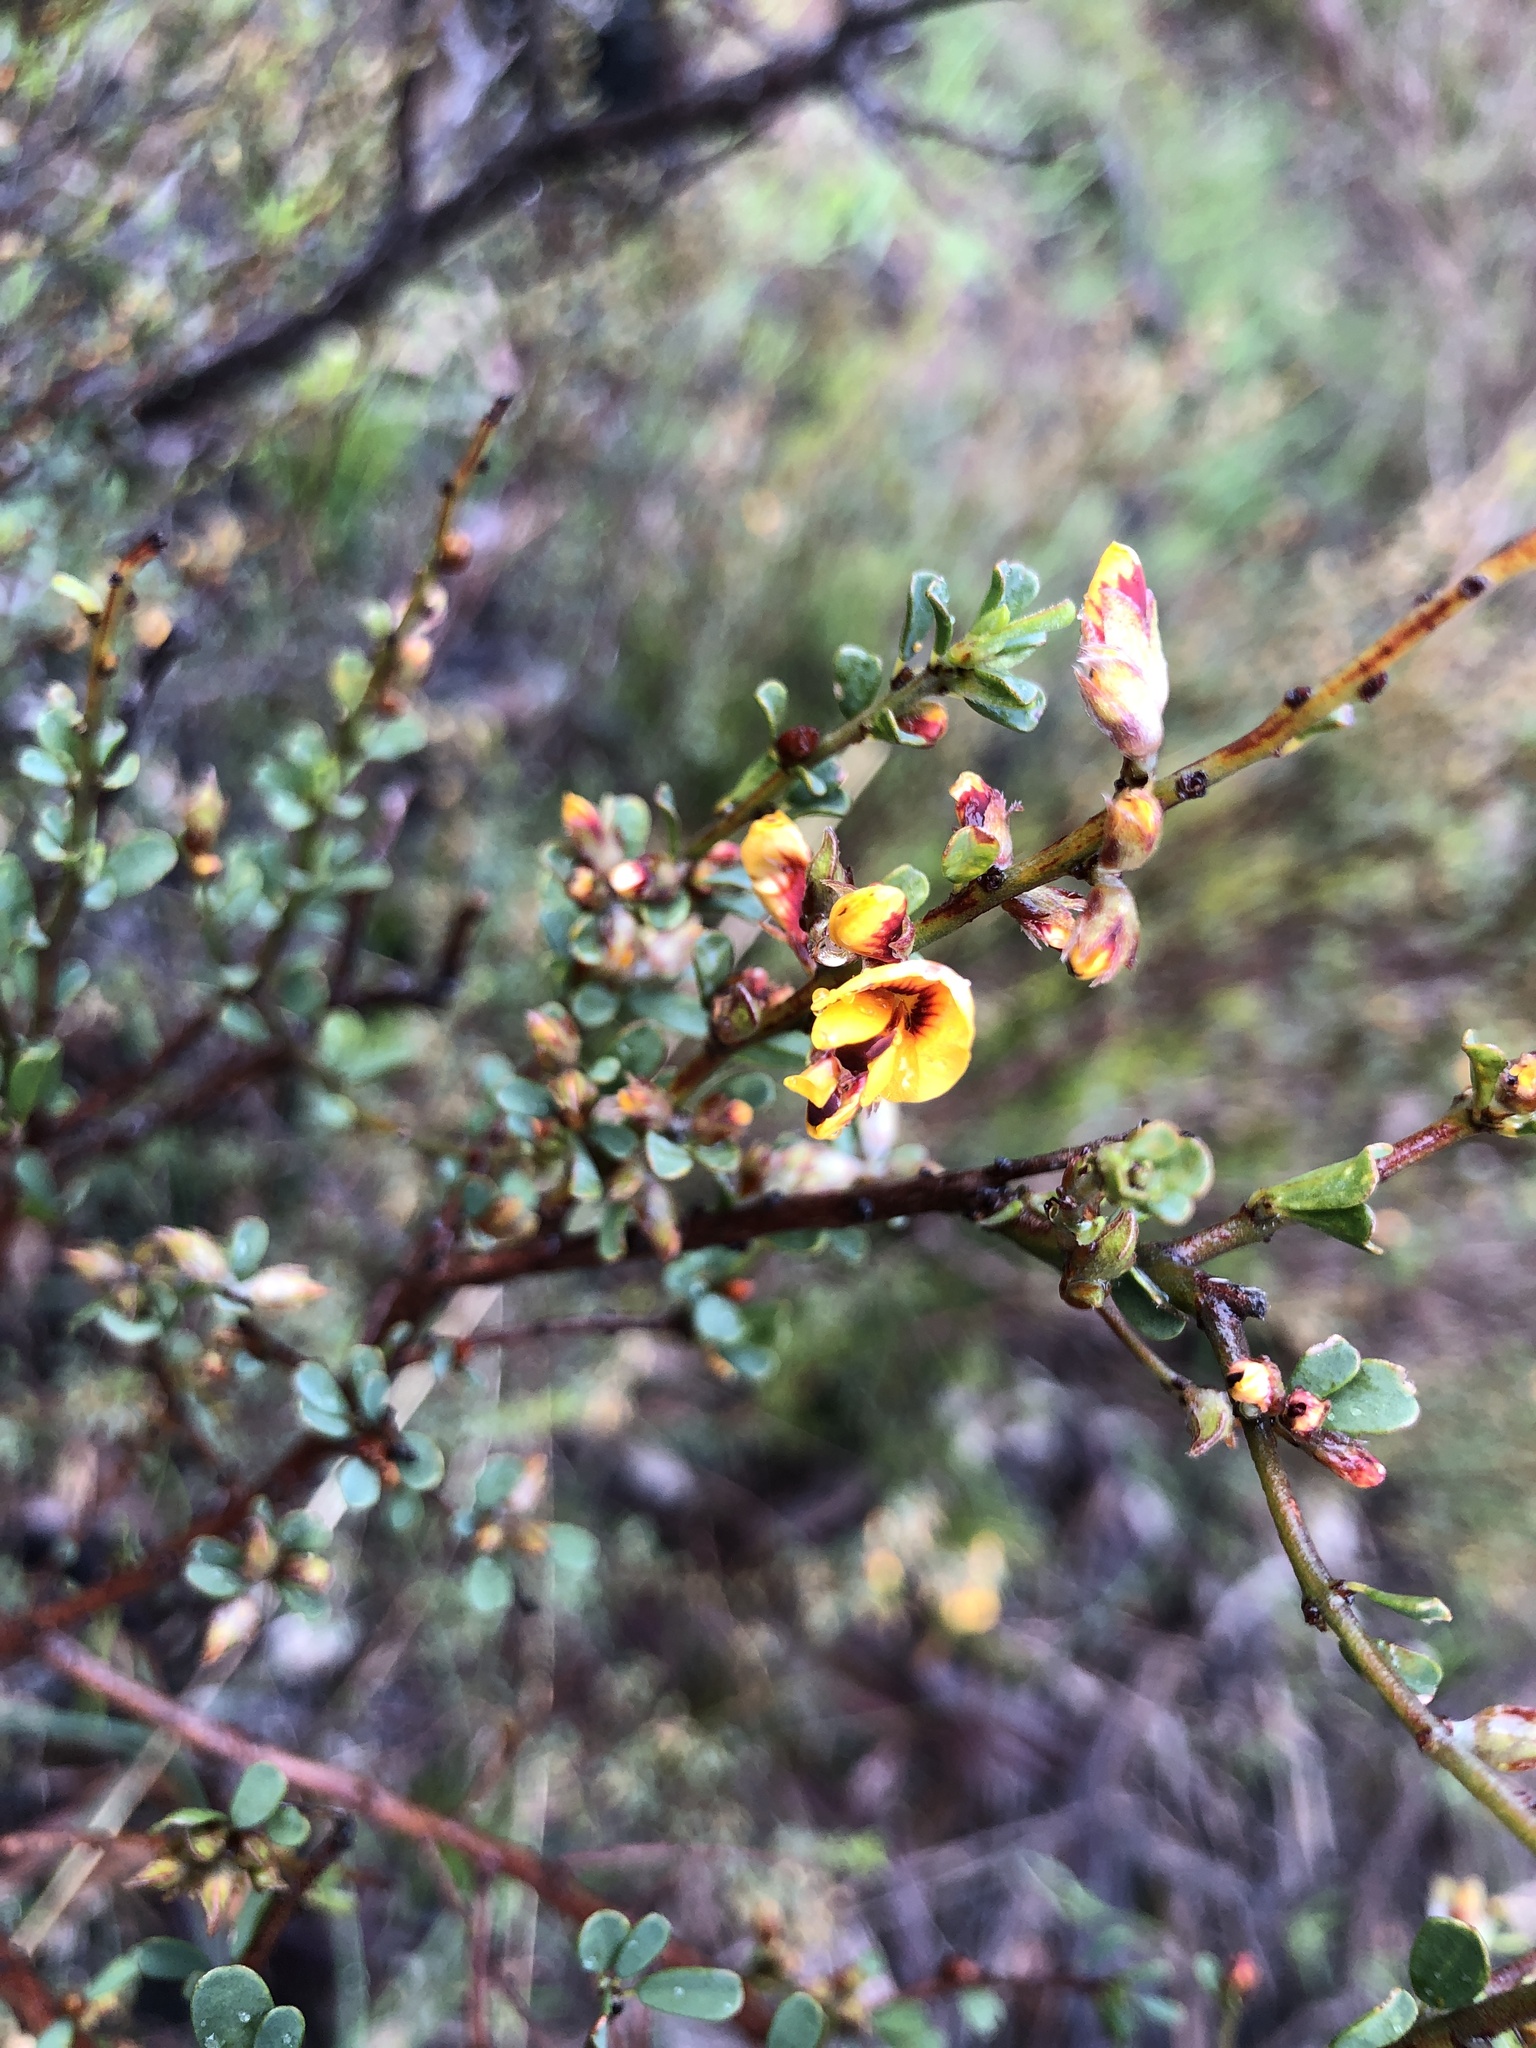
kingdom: Plantae
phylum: Tracheophyta
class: Magnoliopsida
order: Fabales
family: Fabaceae
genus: Pultenaea
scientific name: Pultenaea largiflorens
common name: Twiggy bush-pea
